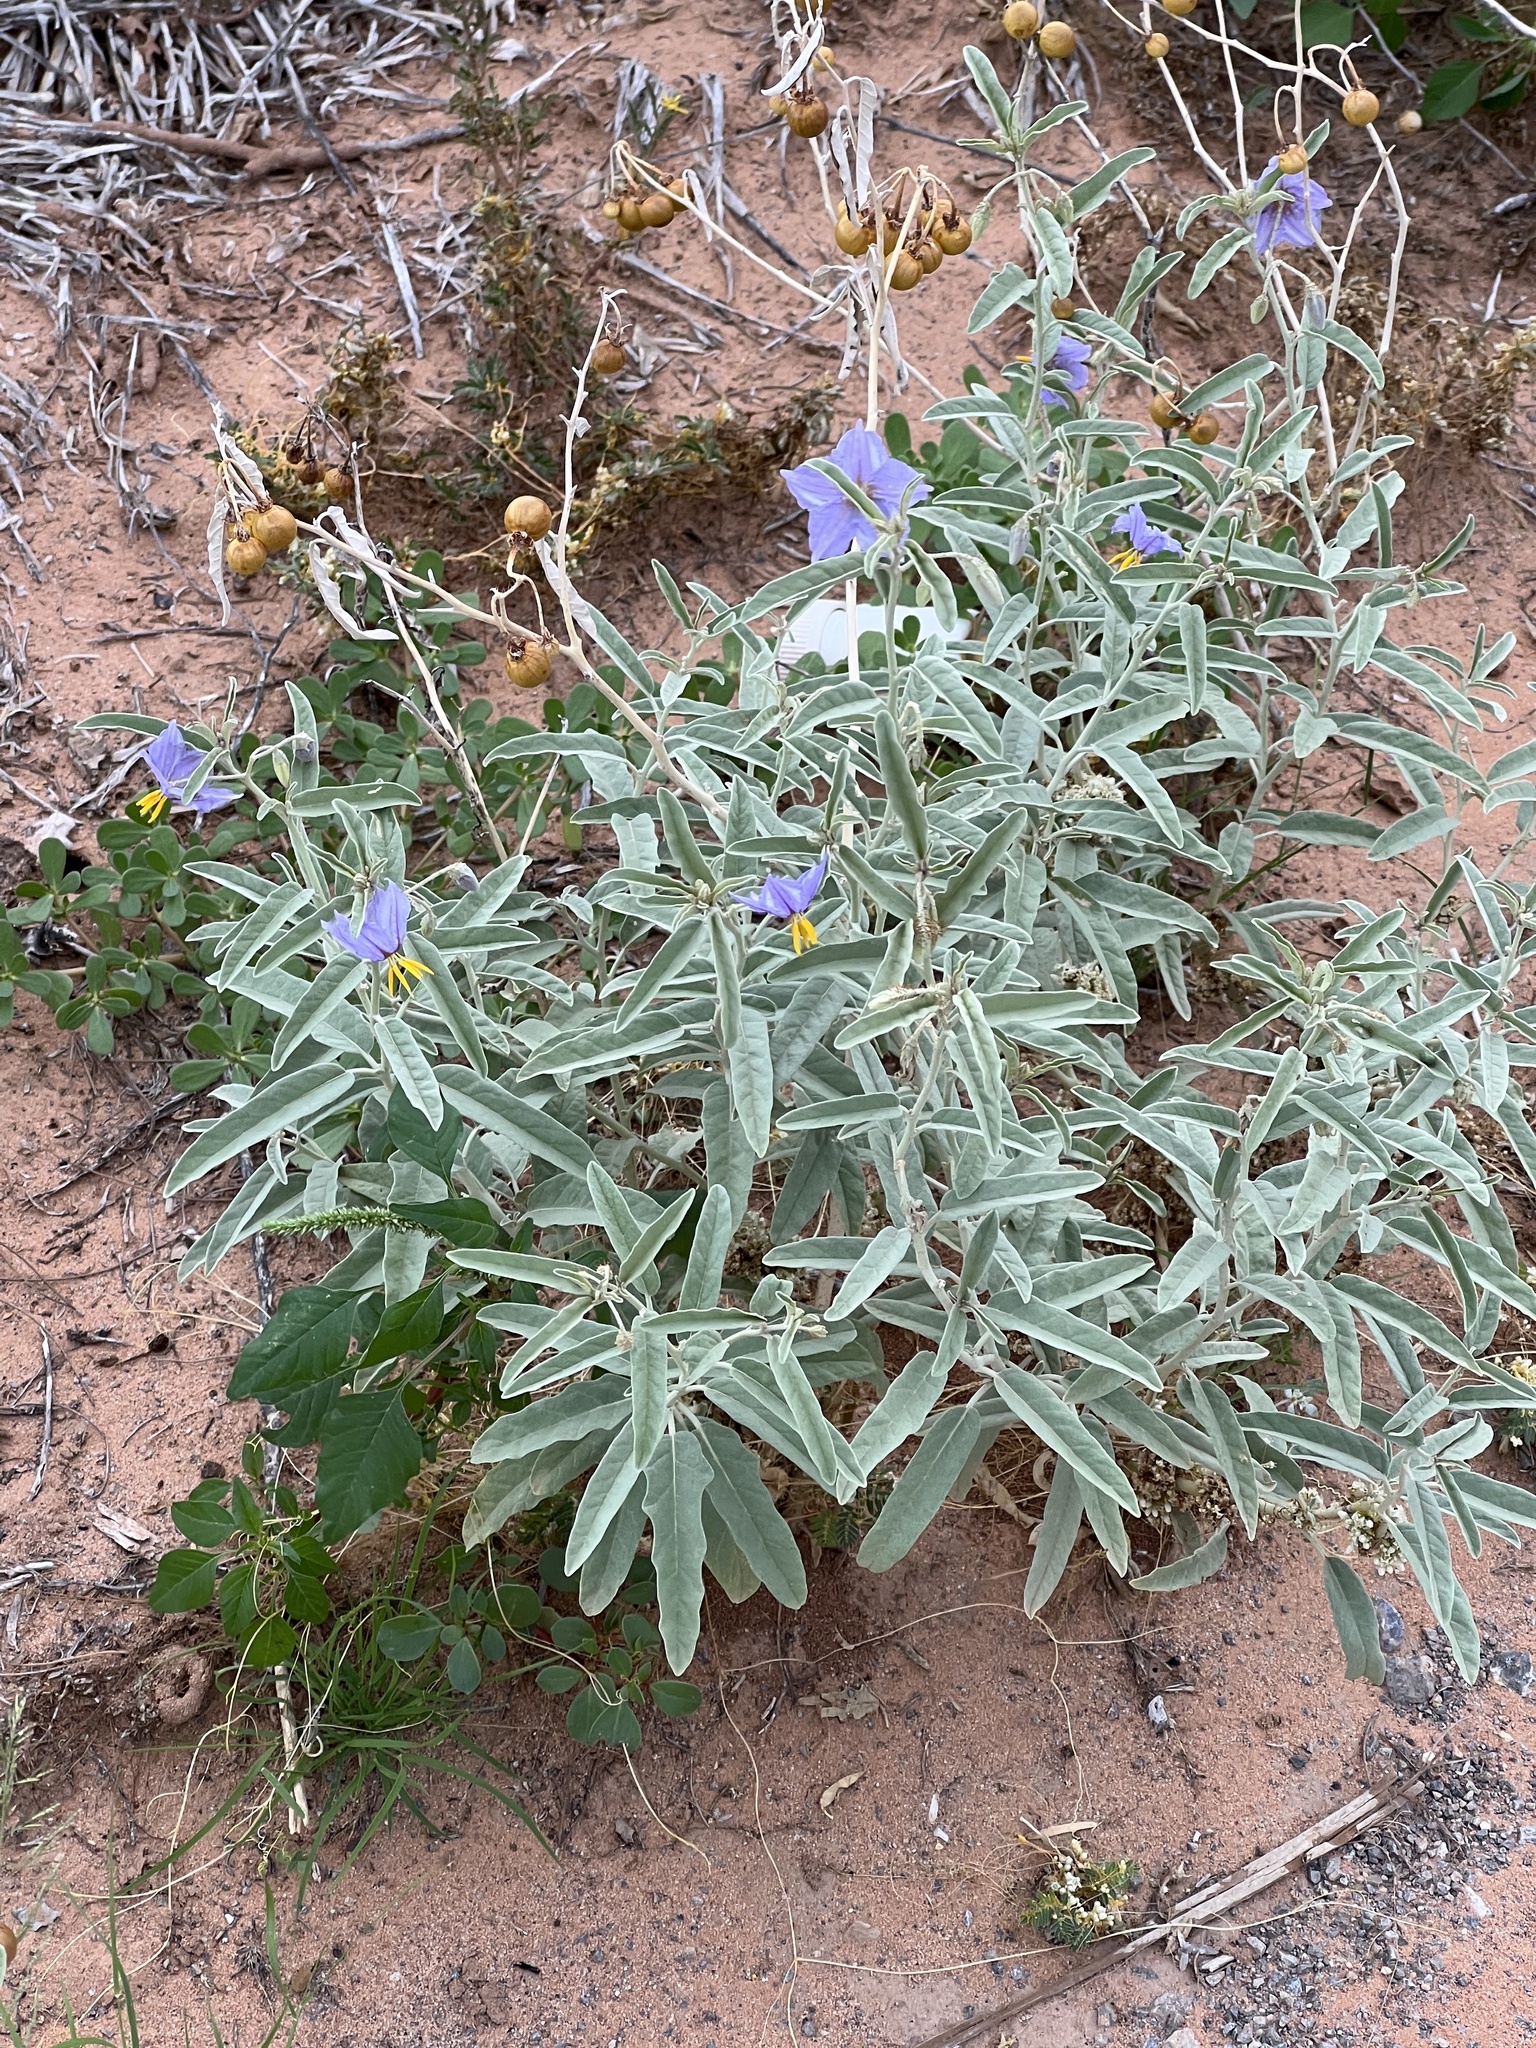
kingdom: Plantae
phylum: Tracheophyta
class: Magnoliopsida
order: Solanales
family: Solanaceae
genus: Solanum
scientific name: Solanum elaeagnifolium
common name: Silverleaf nightshade
